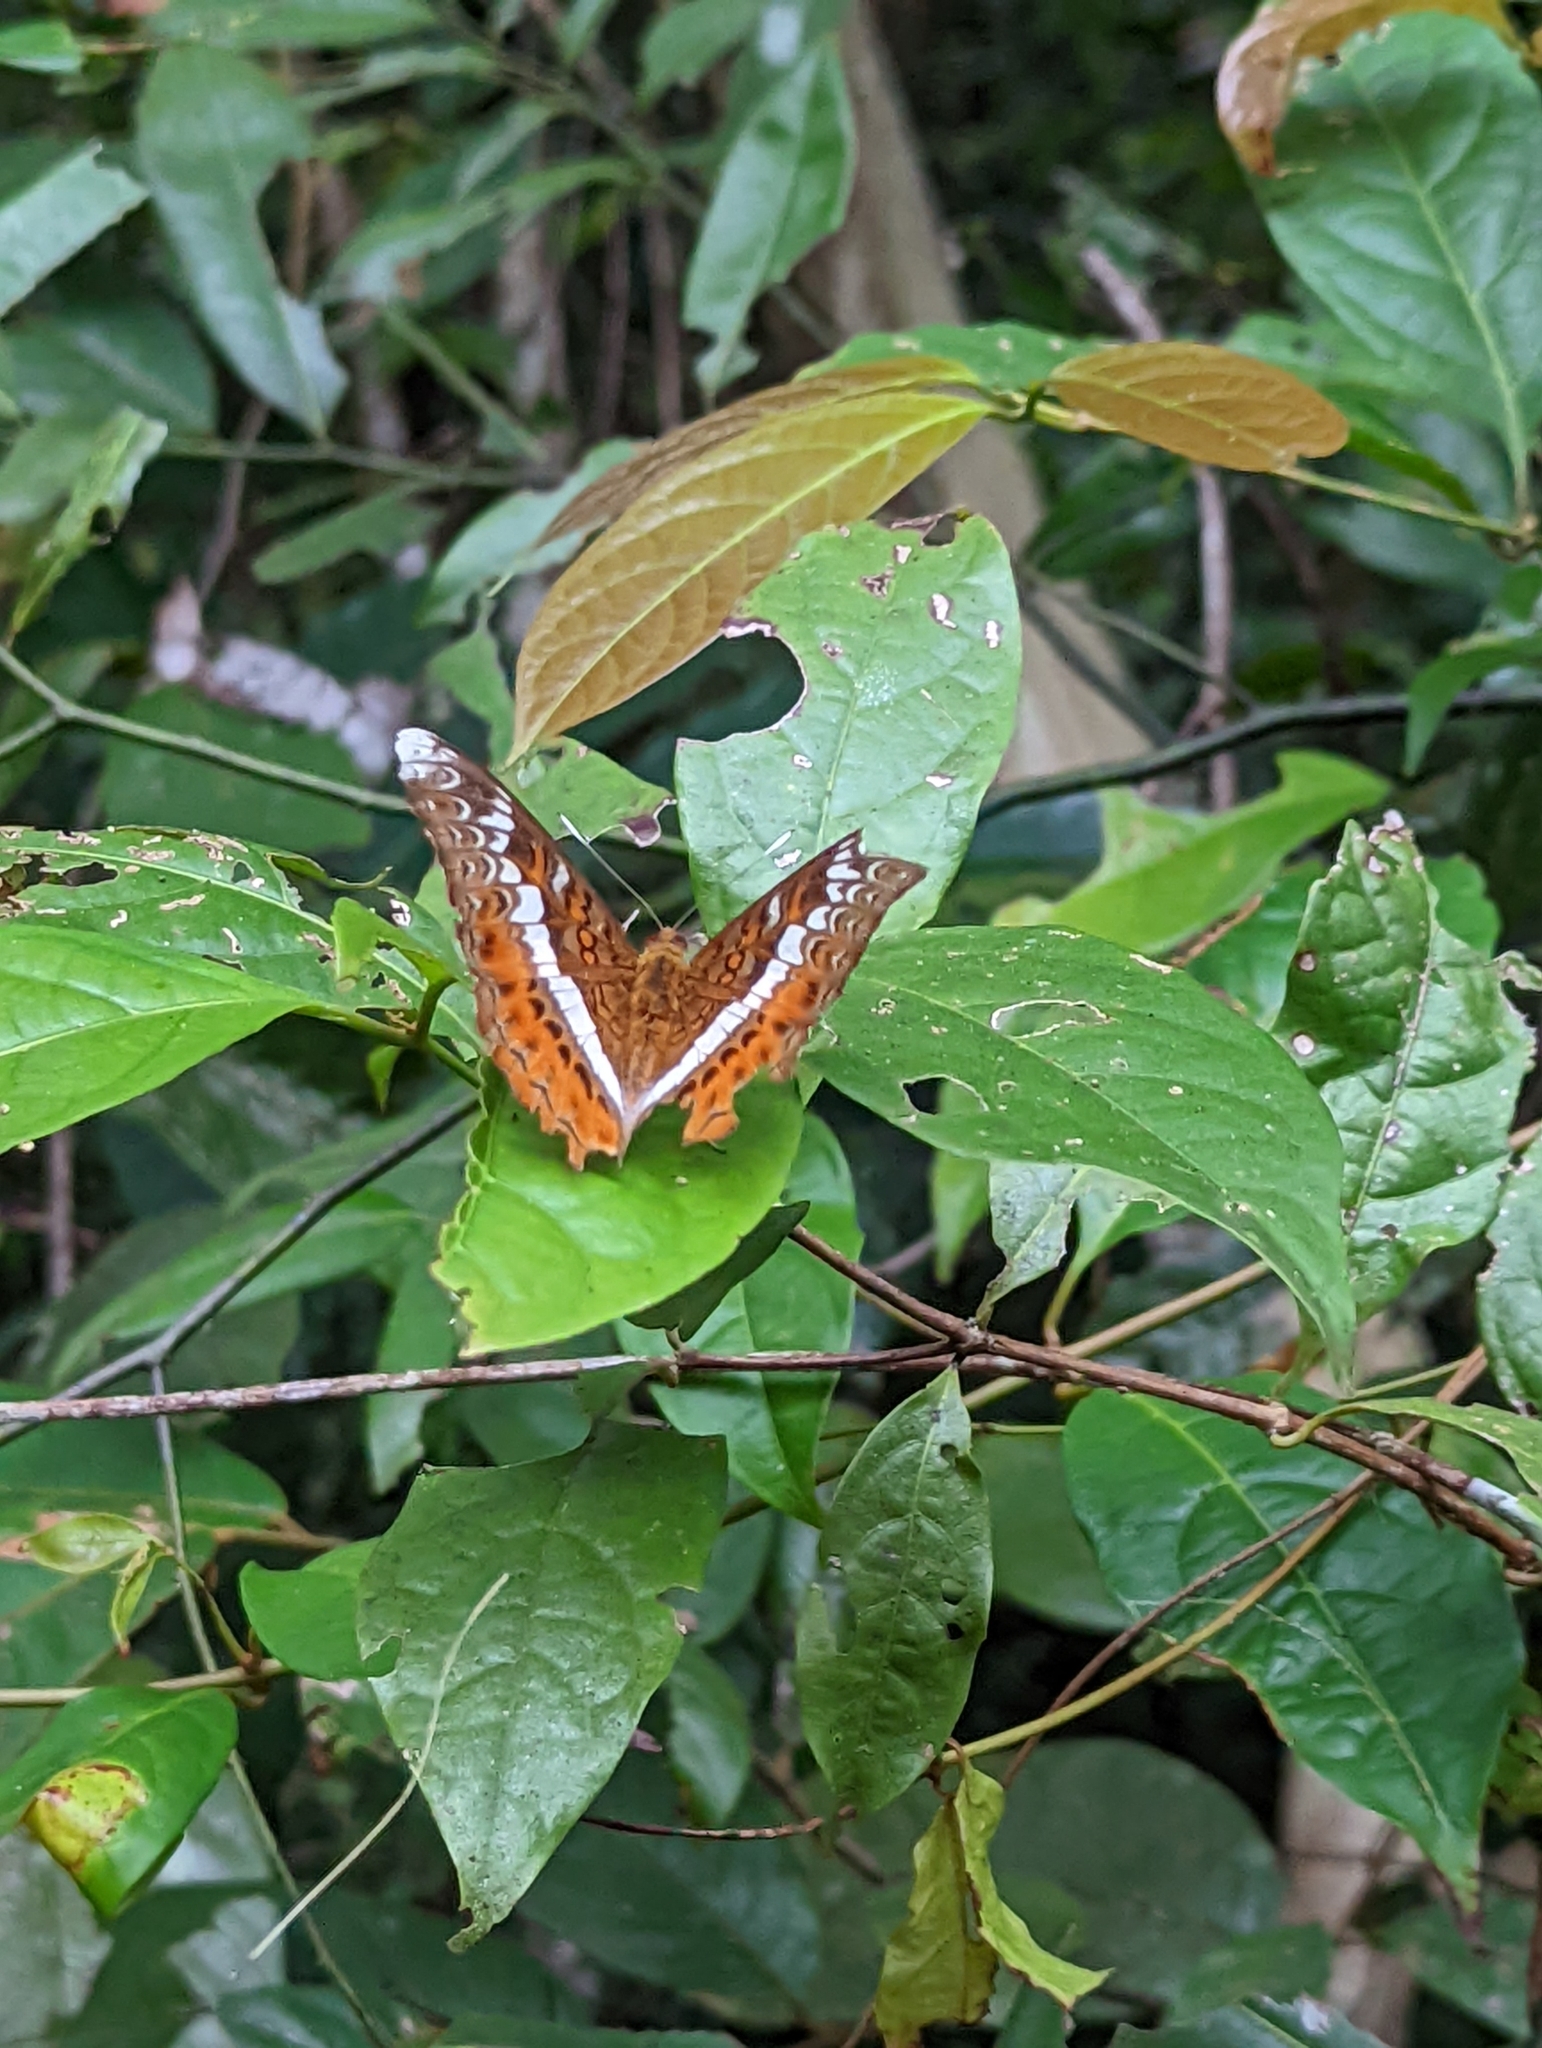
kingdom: Animalia
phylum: Arthropoda
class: Insecta
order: Lepidoptera
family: Nymphalidae
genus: Lebadea
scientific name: Lebadea martha
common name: Knight
